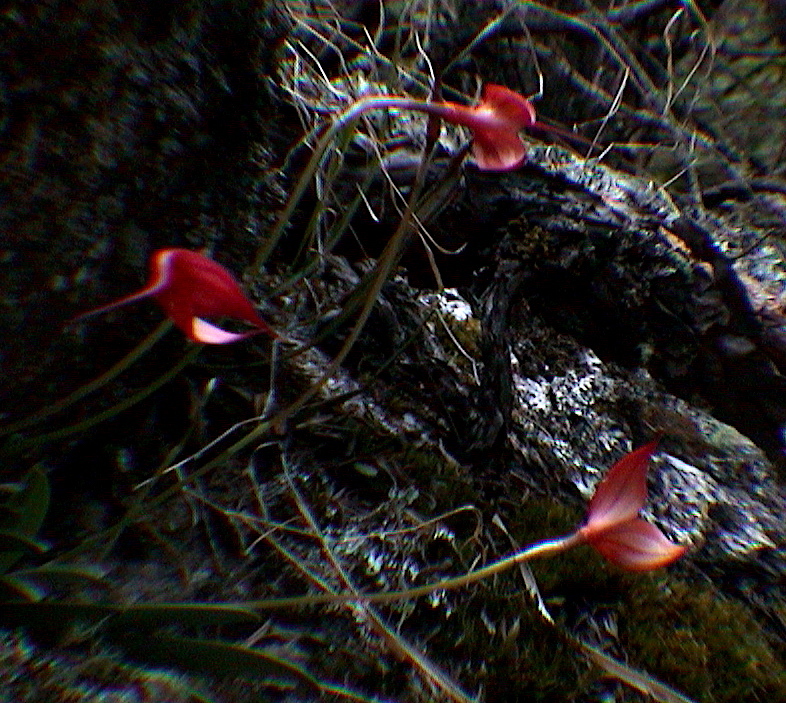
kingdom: Plantae
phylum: Tracheophyta
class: Liliopsida
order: Asparagales
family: Orchidaceae
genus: Masdevallia
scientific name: Masdevallia veitchiana
